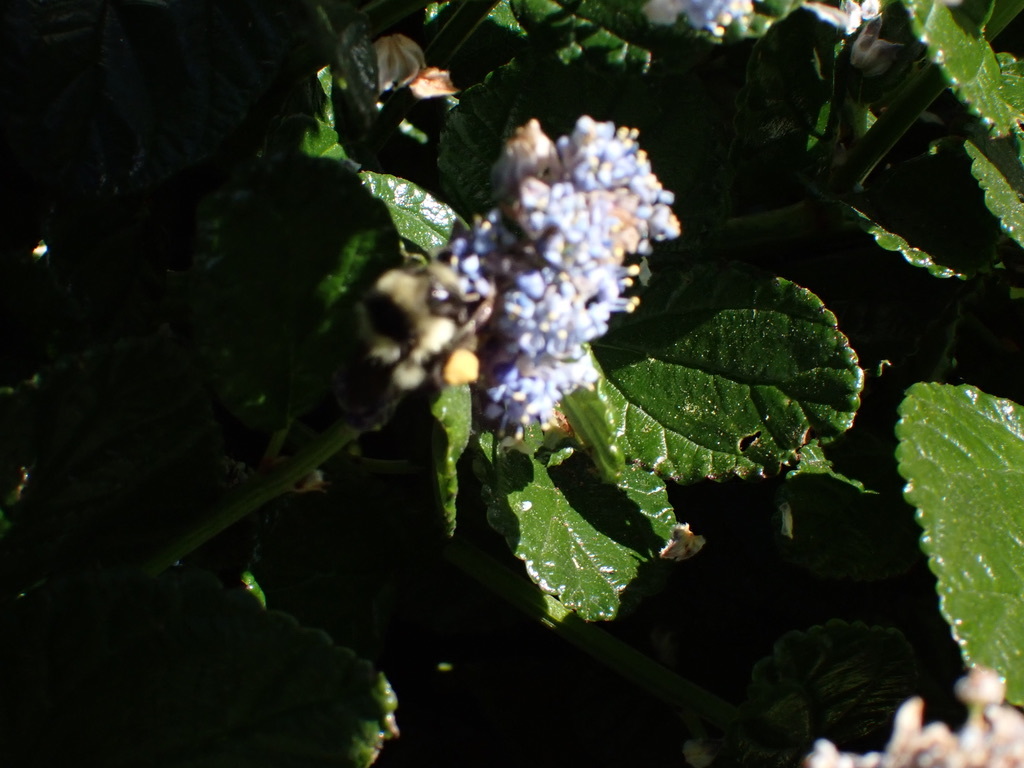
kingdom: Animalia
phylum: Arthropoda
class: Insecta
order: Hymenoptera
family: Apidae
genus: Bombus
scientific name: Bombus melanopygus
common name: Black tail bumble bee
